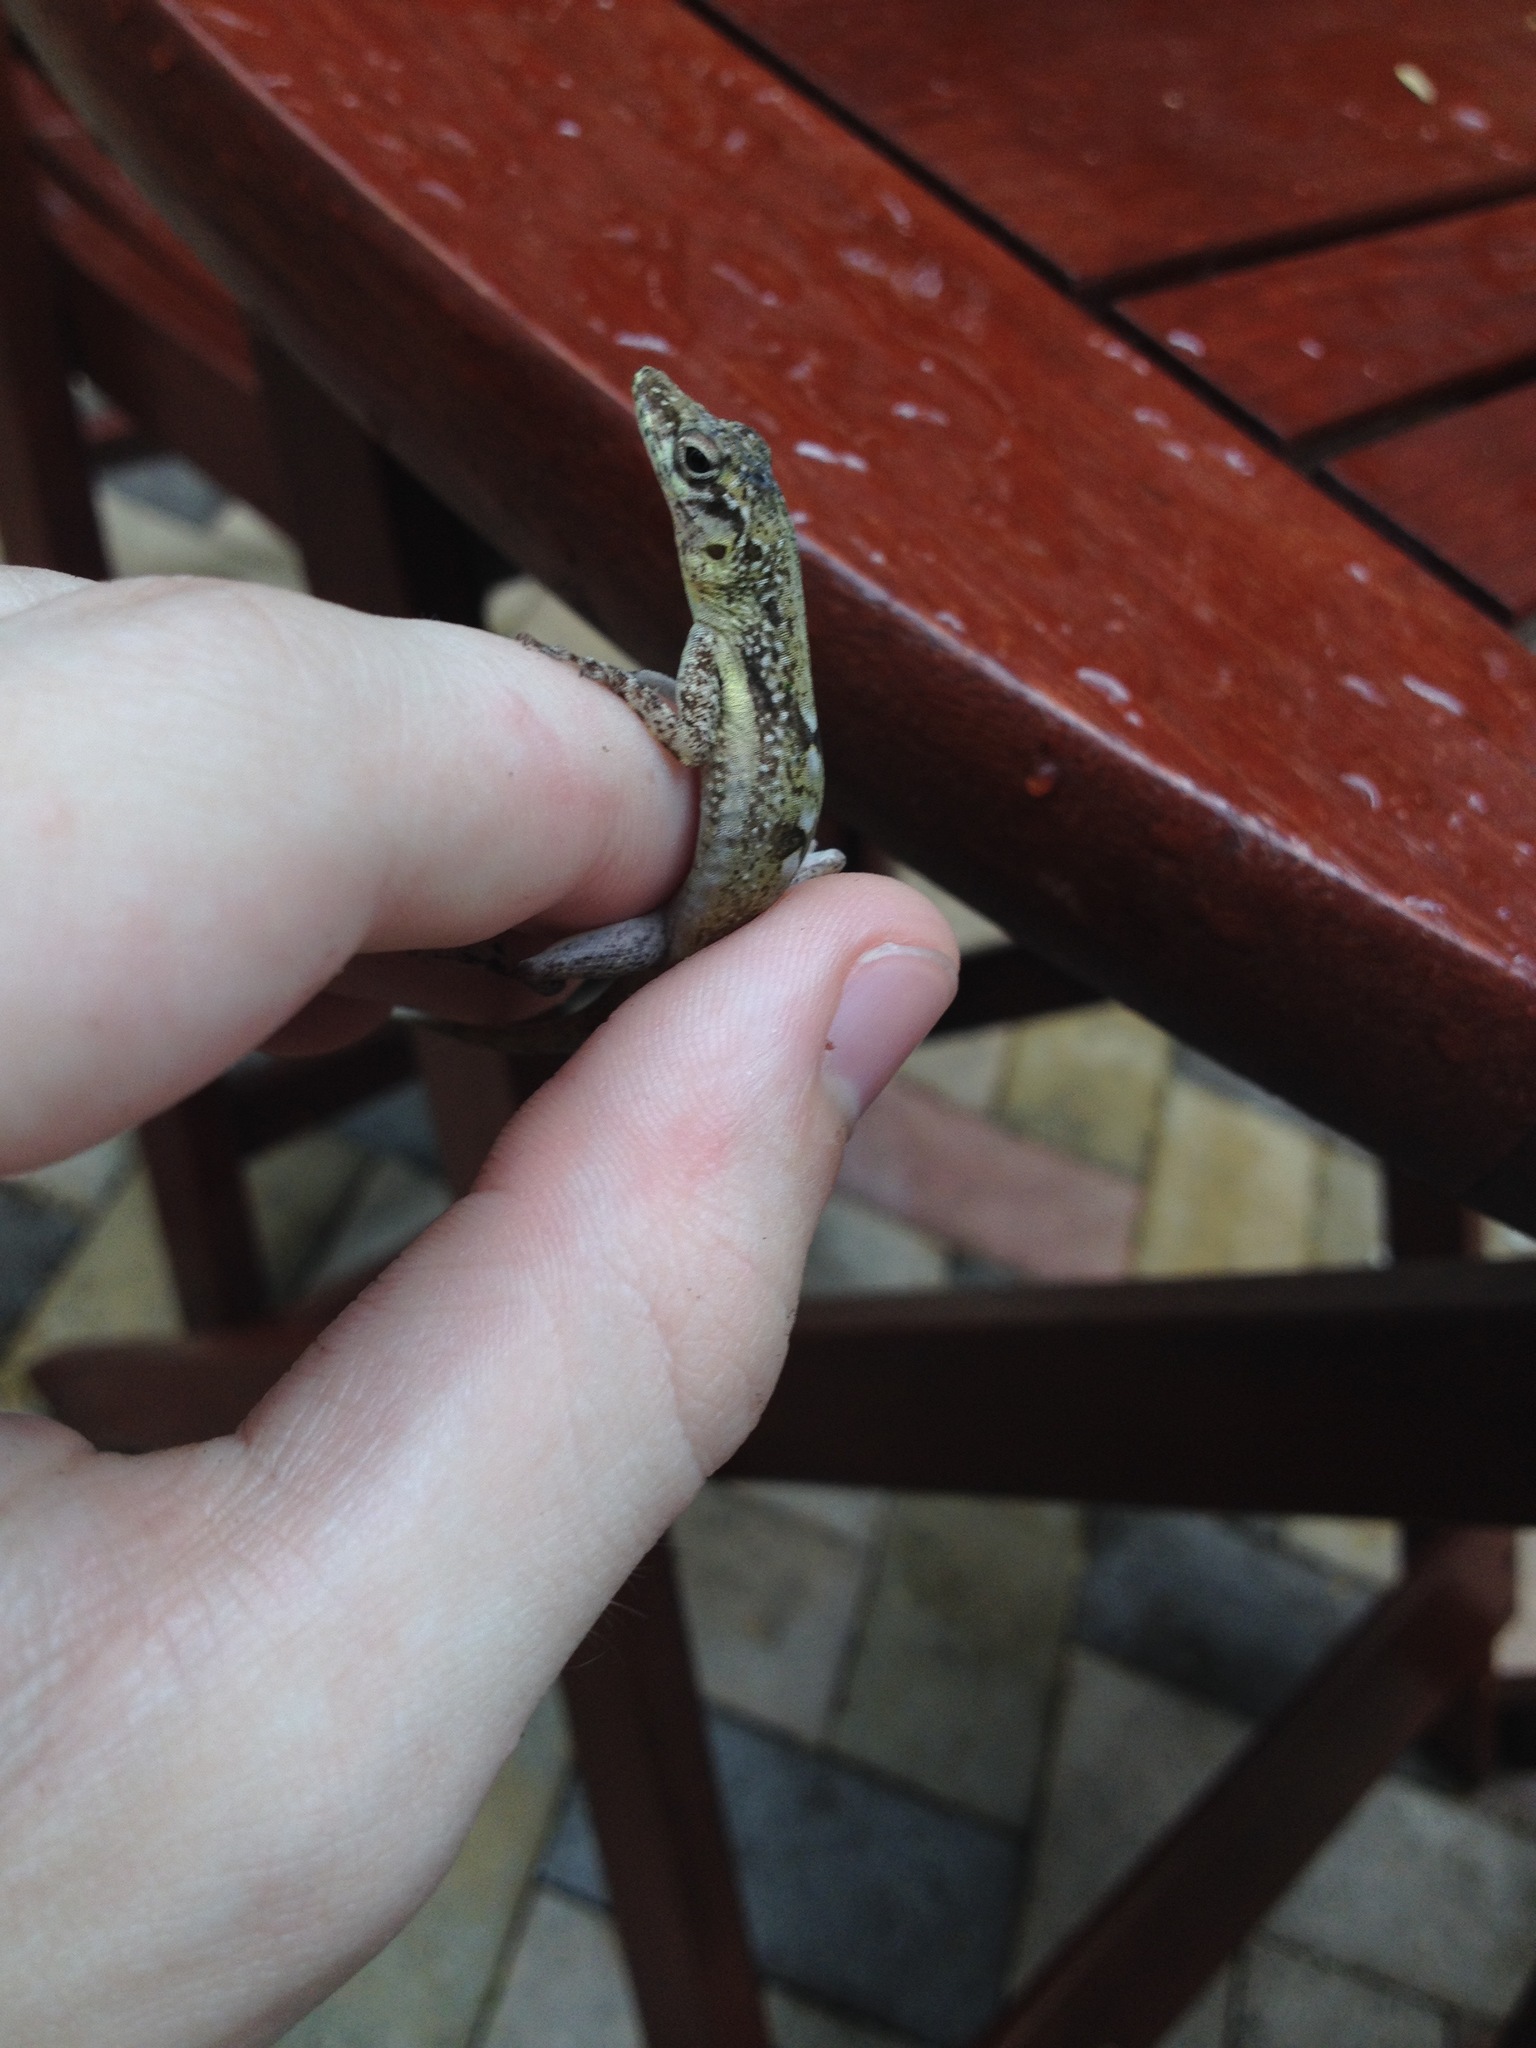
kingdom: Animalia
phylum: Chordata
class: Squamata
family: Dactyloidae
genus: Anolis
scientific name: Anolis conspersus
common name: Grand cayman anole
